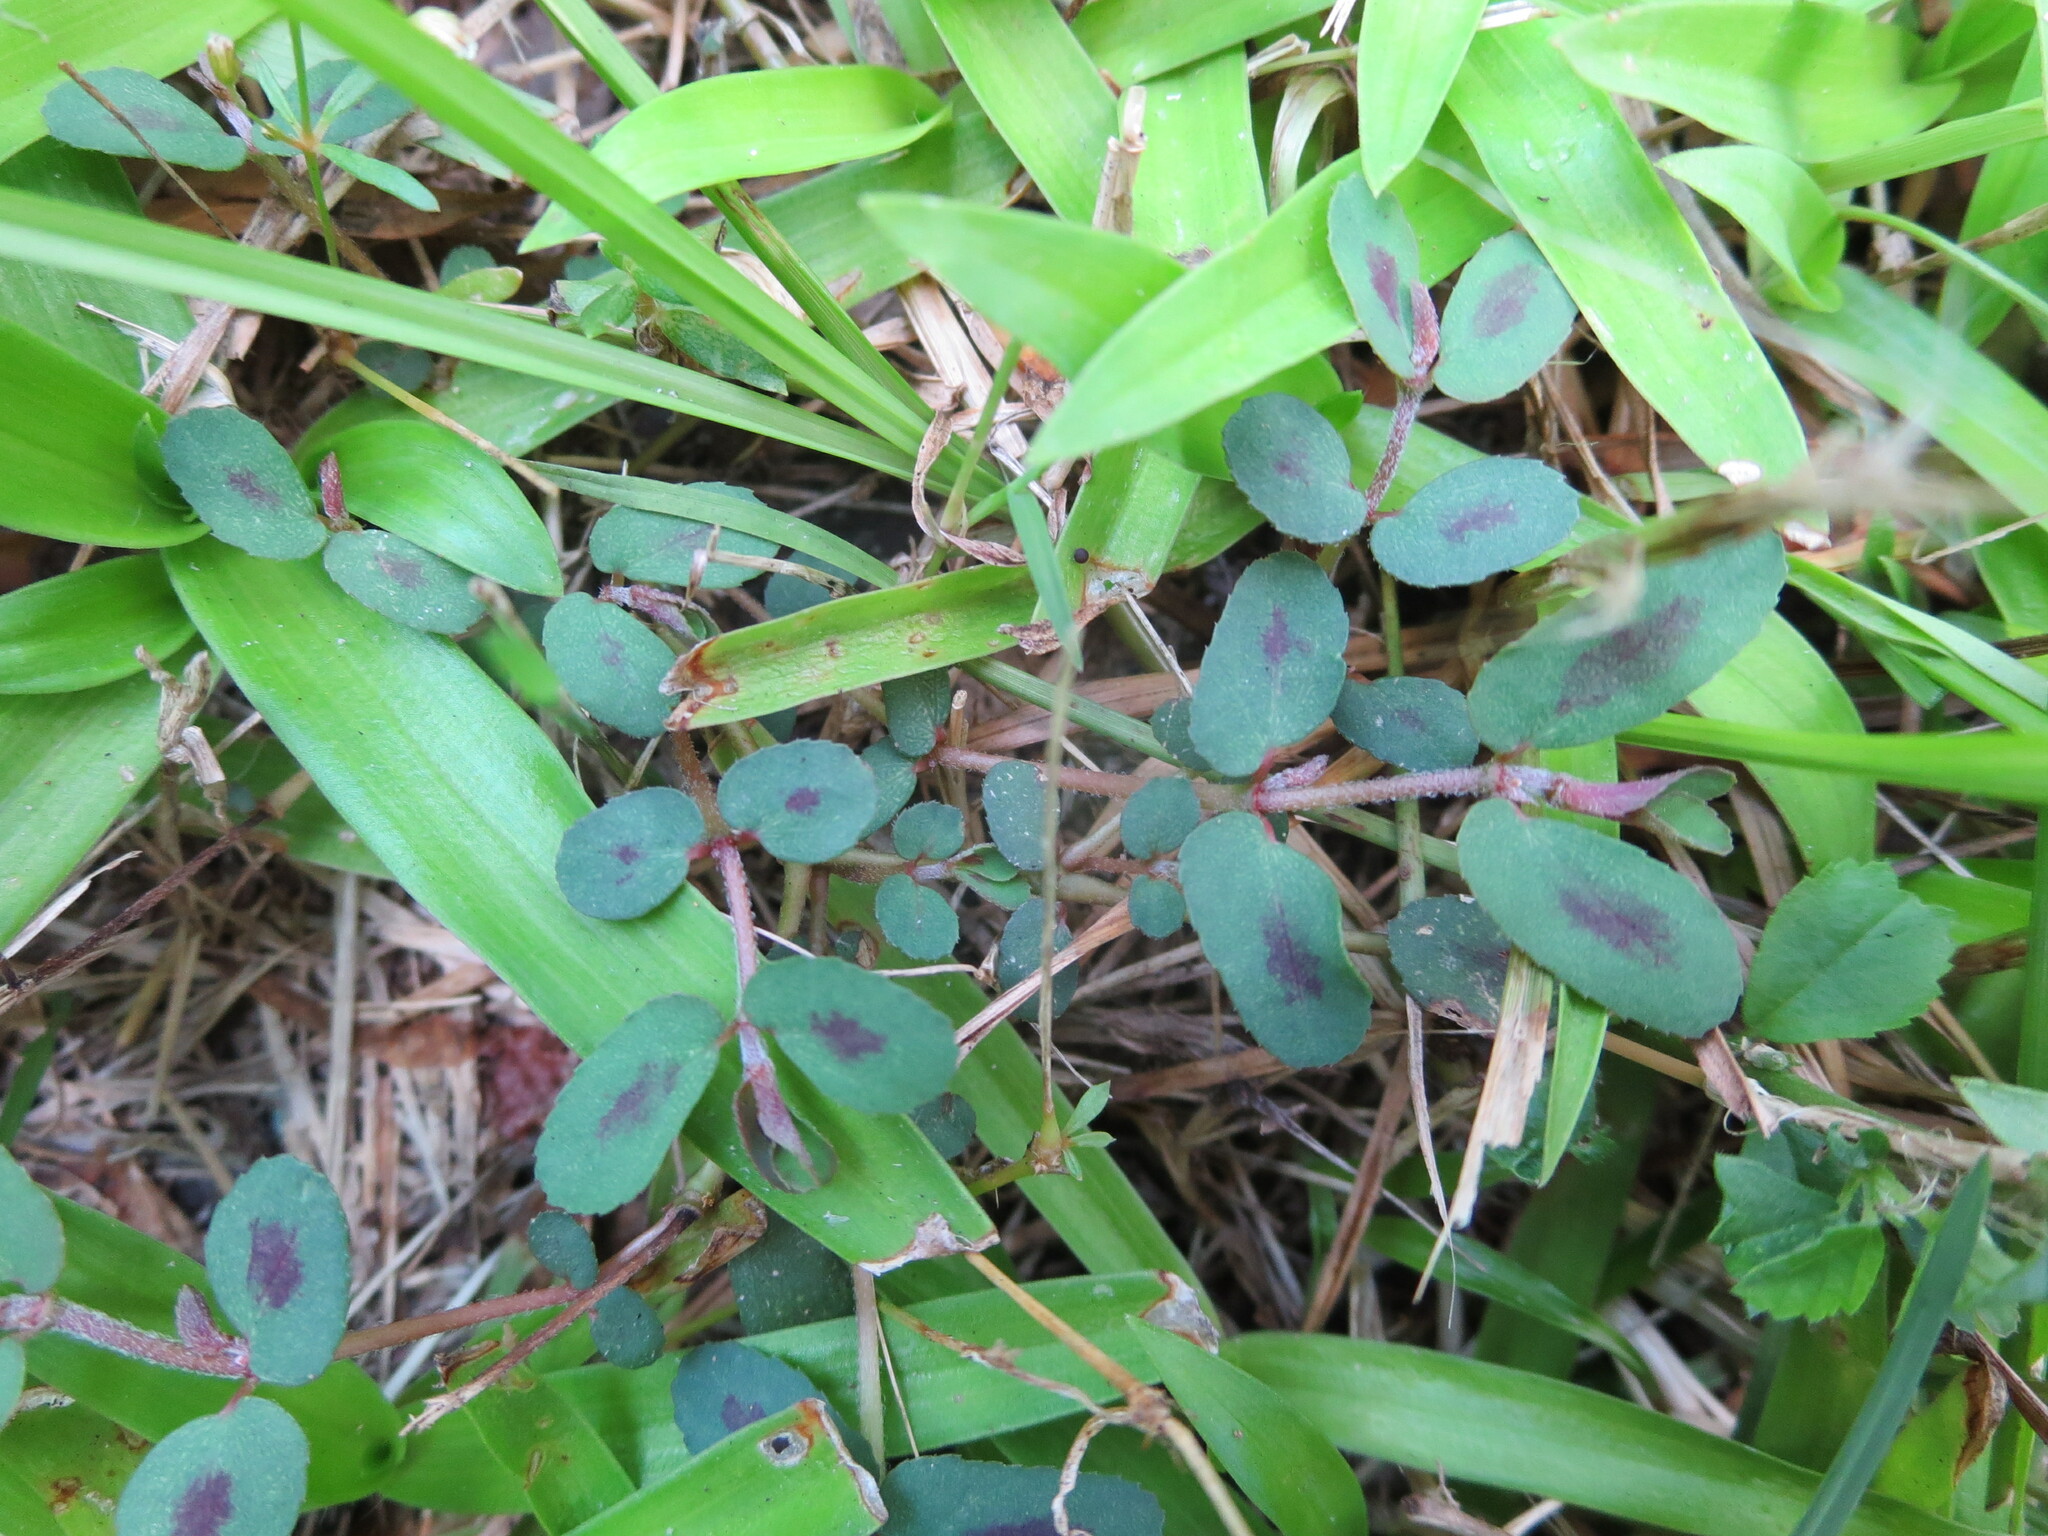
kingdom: Plantae
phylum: Tracheophyta
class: Magnoliopsida
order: Malpighiales
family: Euphorbiaceae
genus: Euphorbia
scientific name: Euphorbia maculata
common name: Spotted spurge
